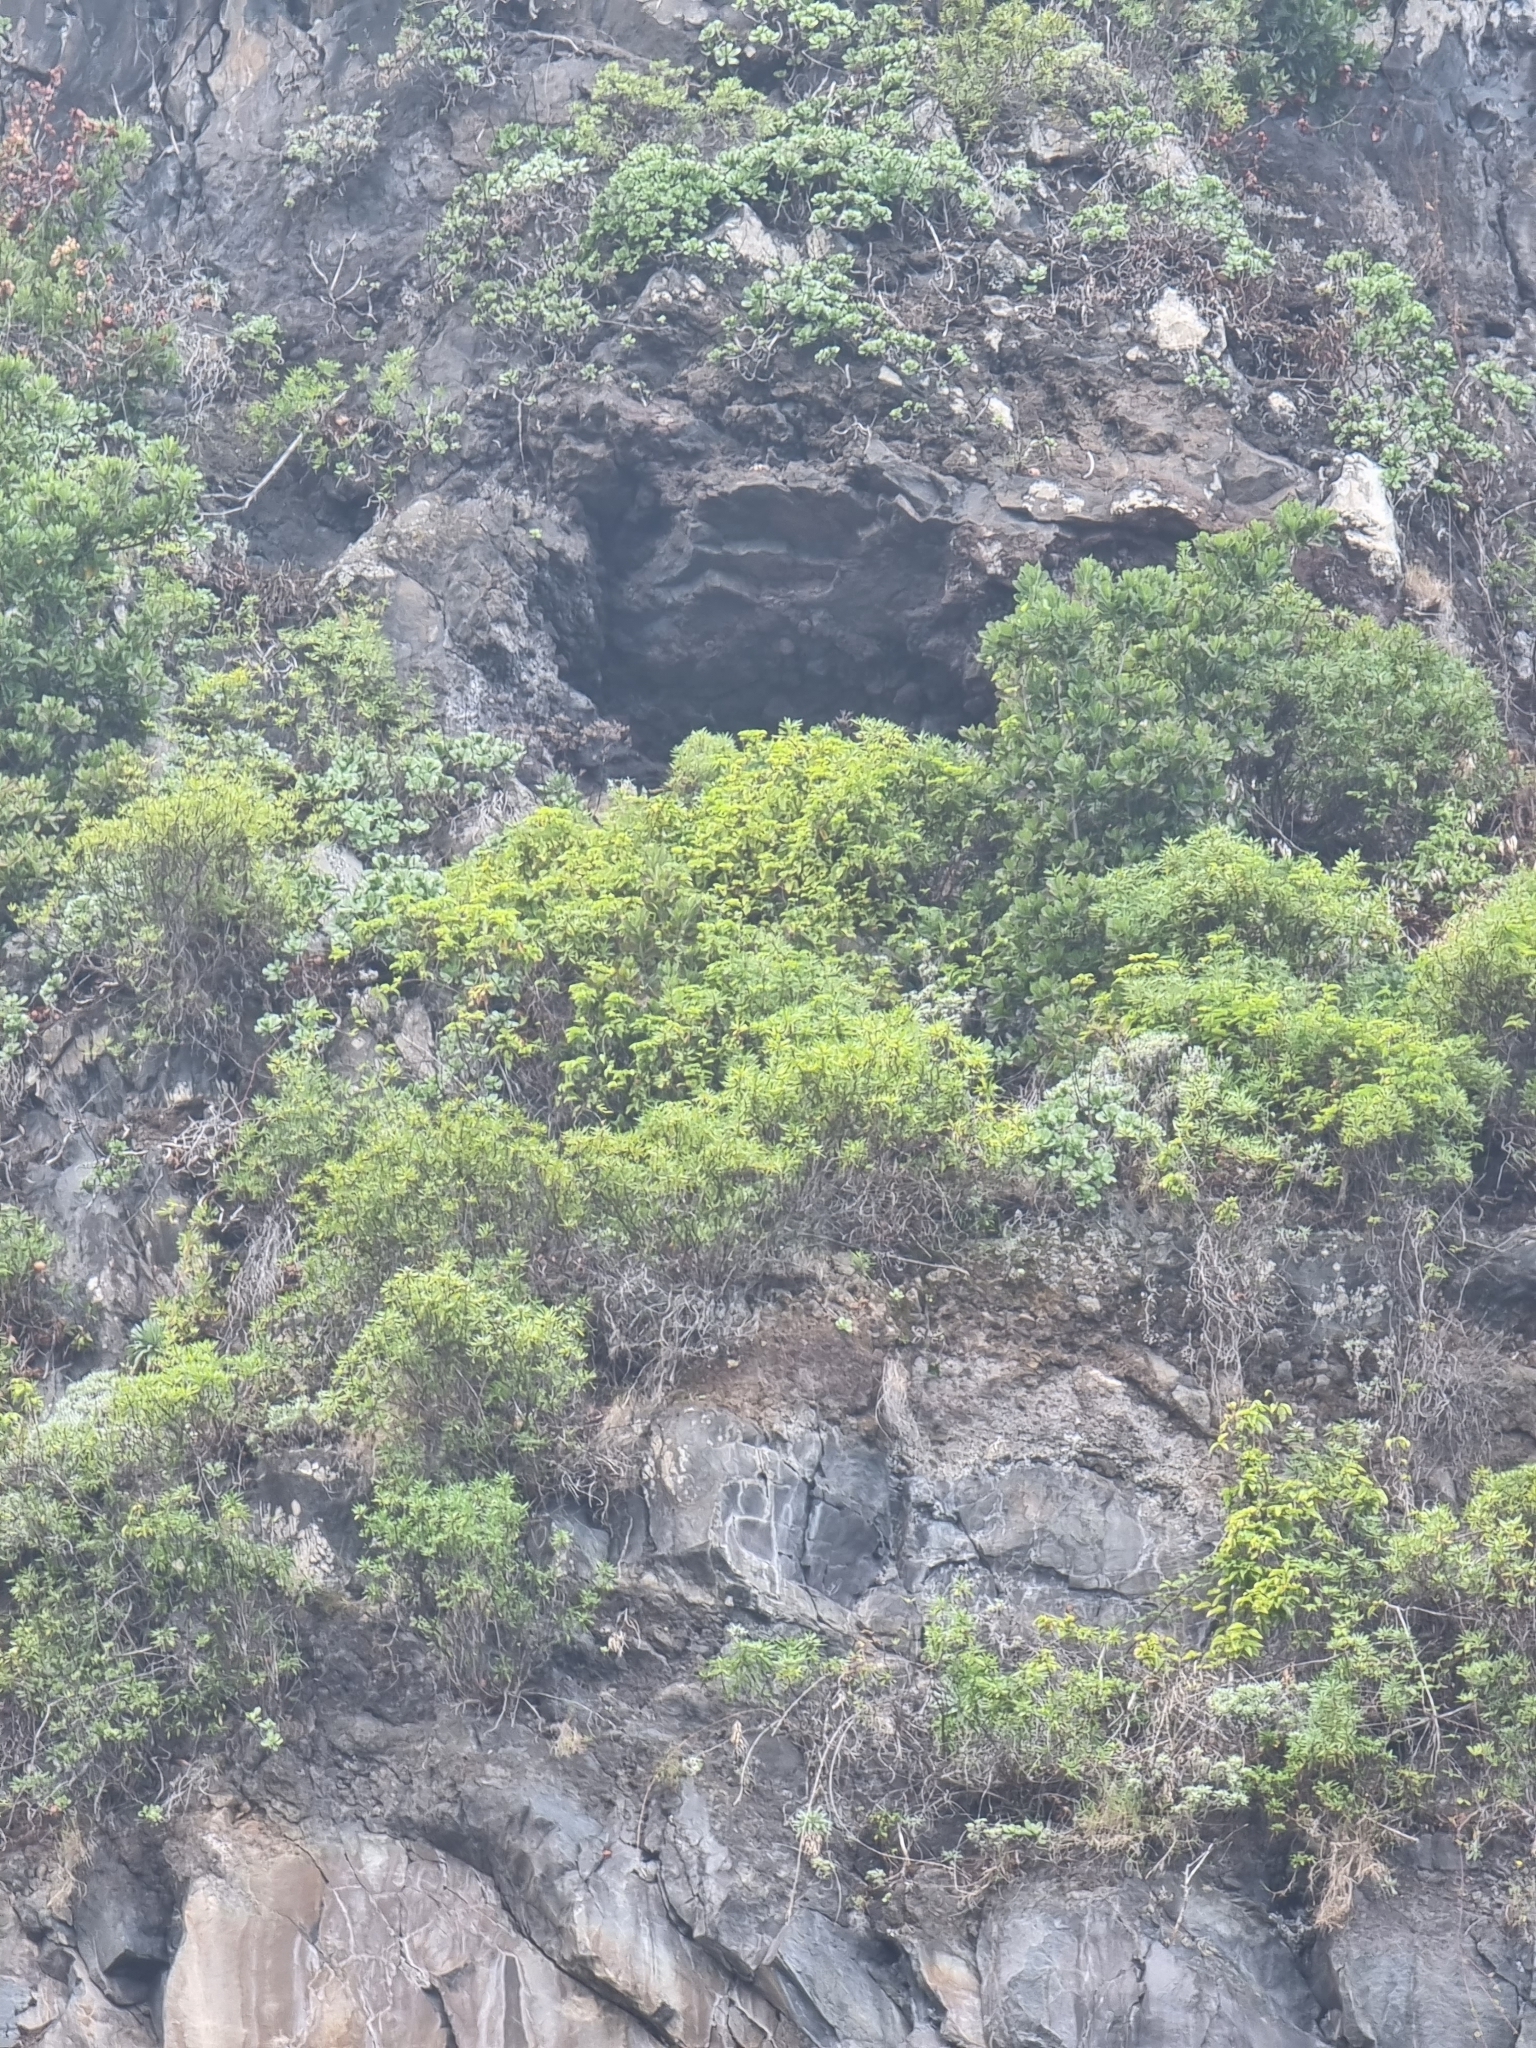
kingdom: Plantae
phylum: Tracheophyta
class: Magnoliopsida
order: Ericales
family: Sapotaceae
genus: Sideroxylon
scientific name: Sideroxylon mirmulans
